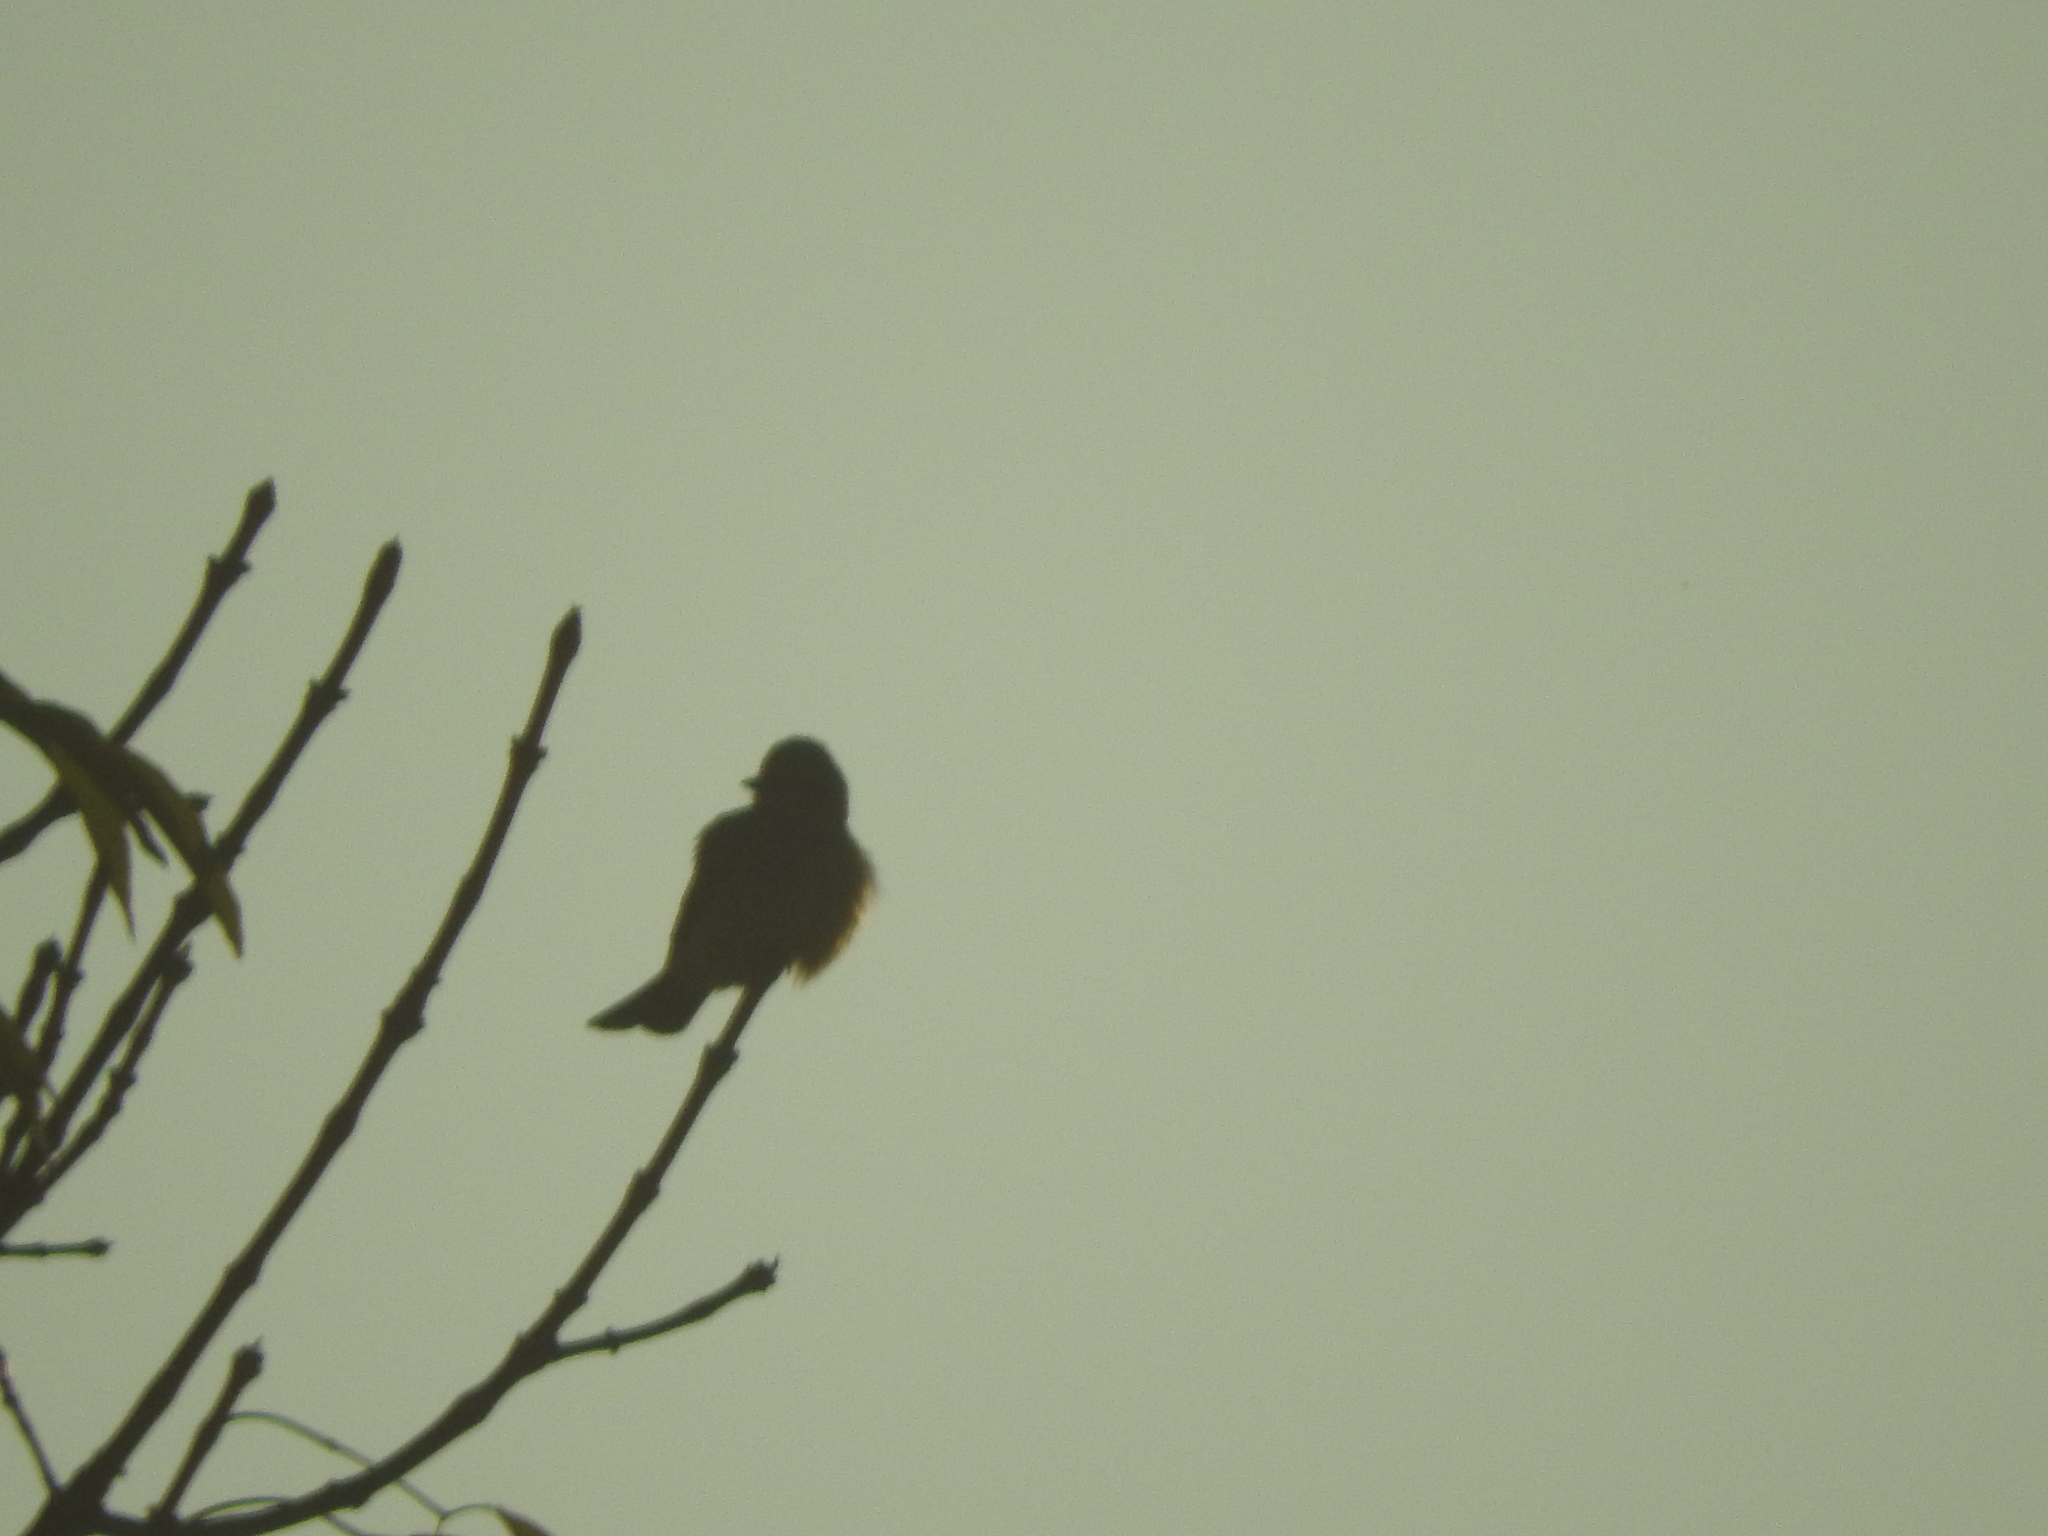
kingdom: Animalia
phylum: Chordata
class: Aves
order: Passeriformes
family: Tyrannidae
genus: Tyrannus
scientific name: Tyrannus vociferans
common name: Cassin's kingbird
